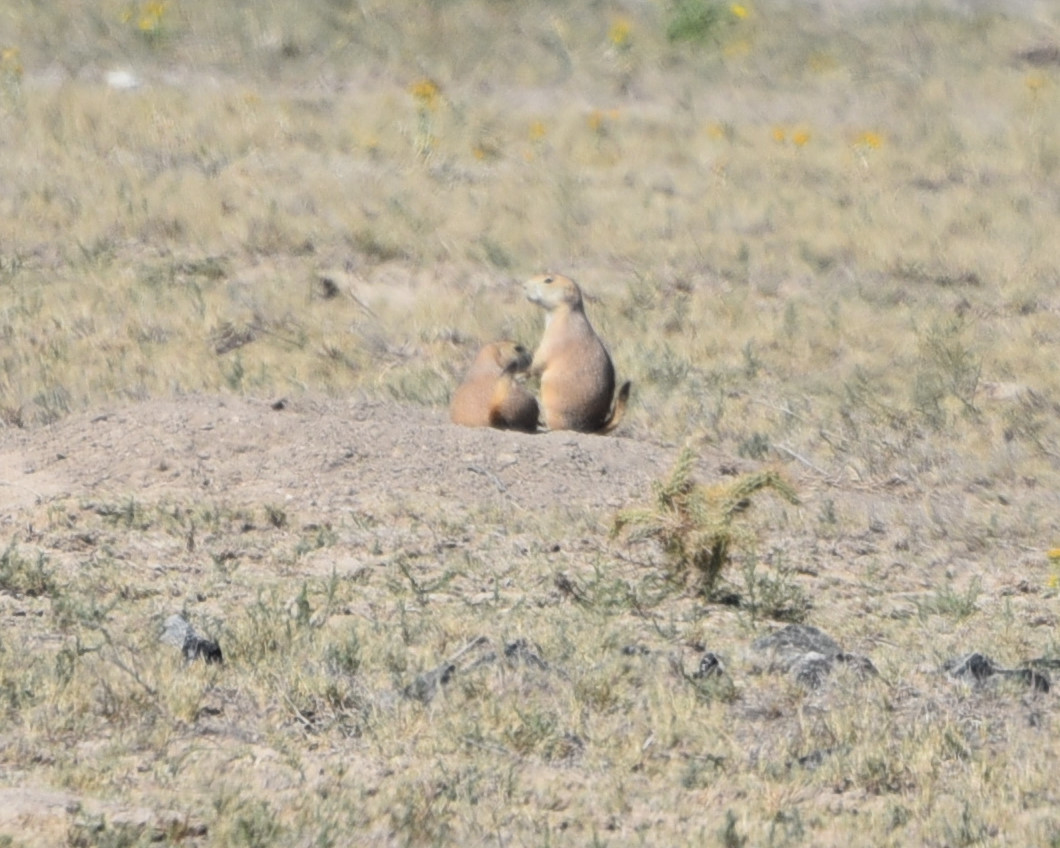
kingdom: Animalia
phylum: Chordata
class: Mammalia
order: Rodentia
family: Sciuridae
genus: Cynomys
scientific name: Cynomys ludovicianus
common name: Black-tailed prairie dog
